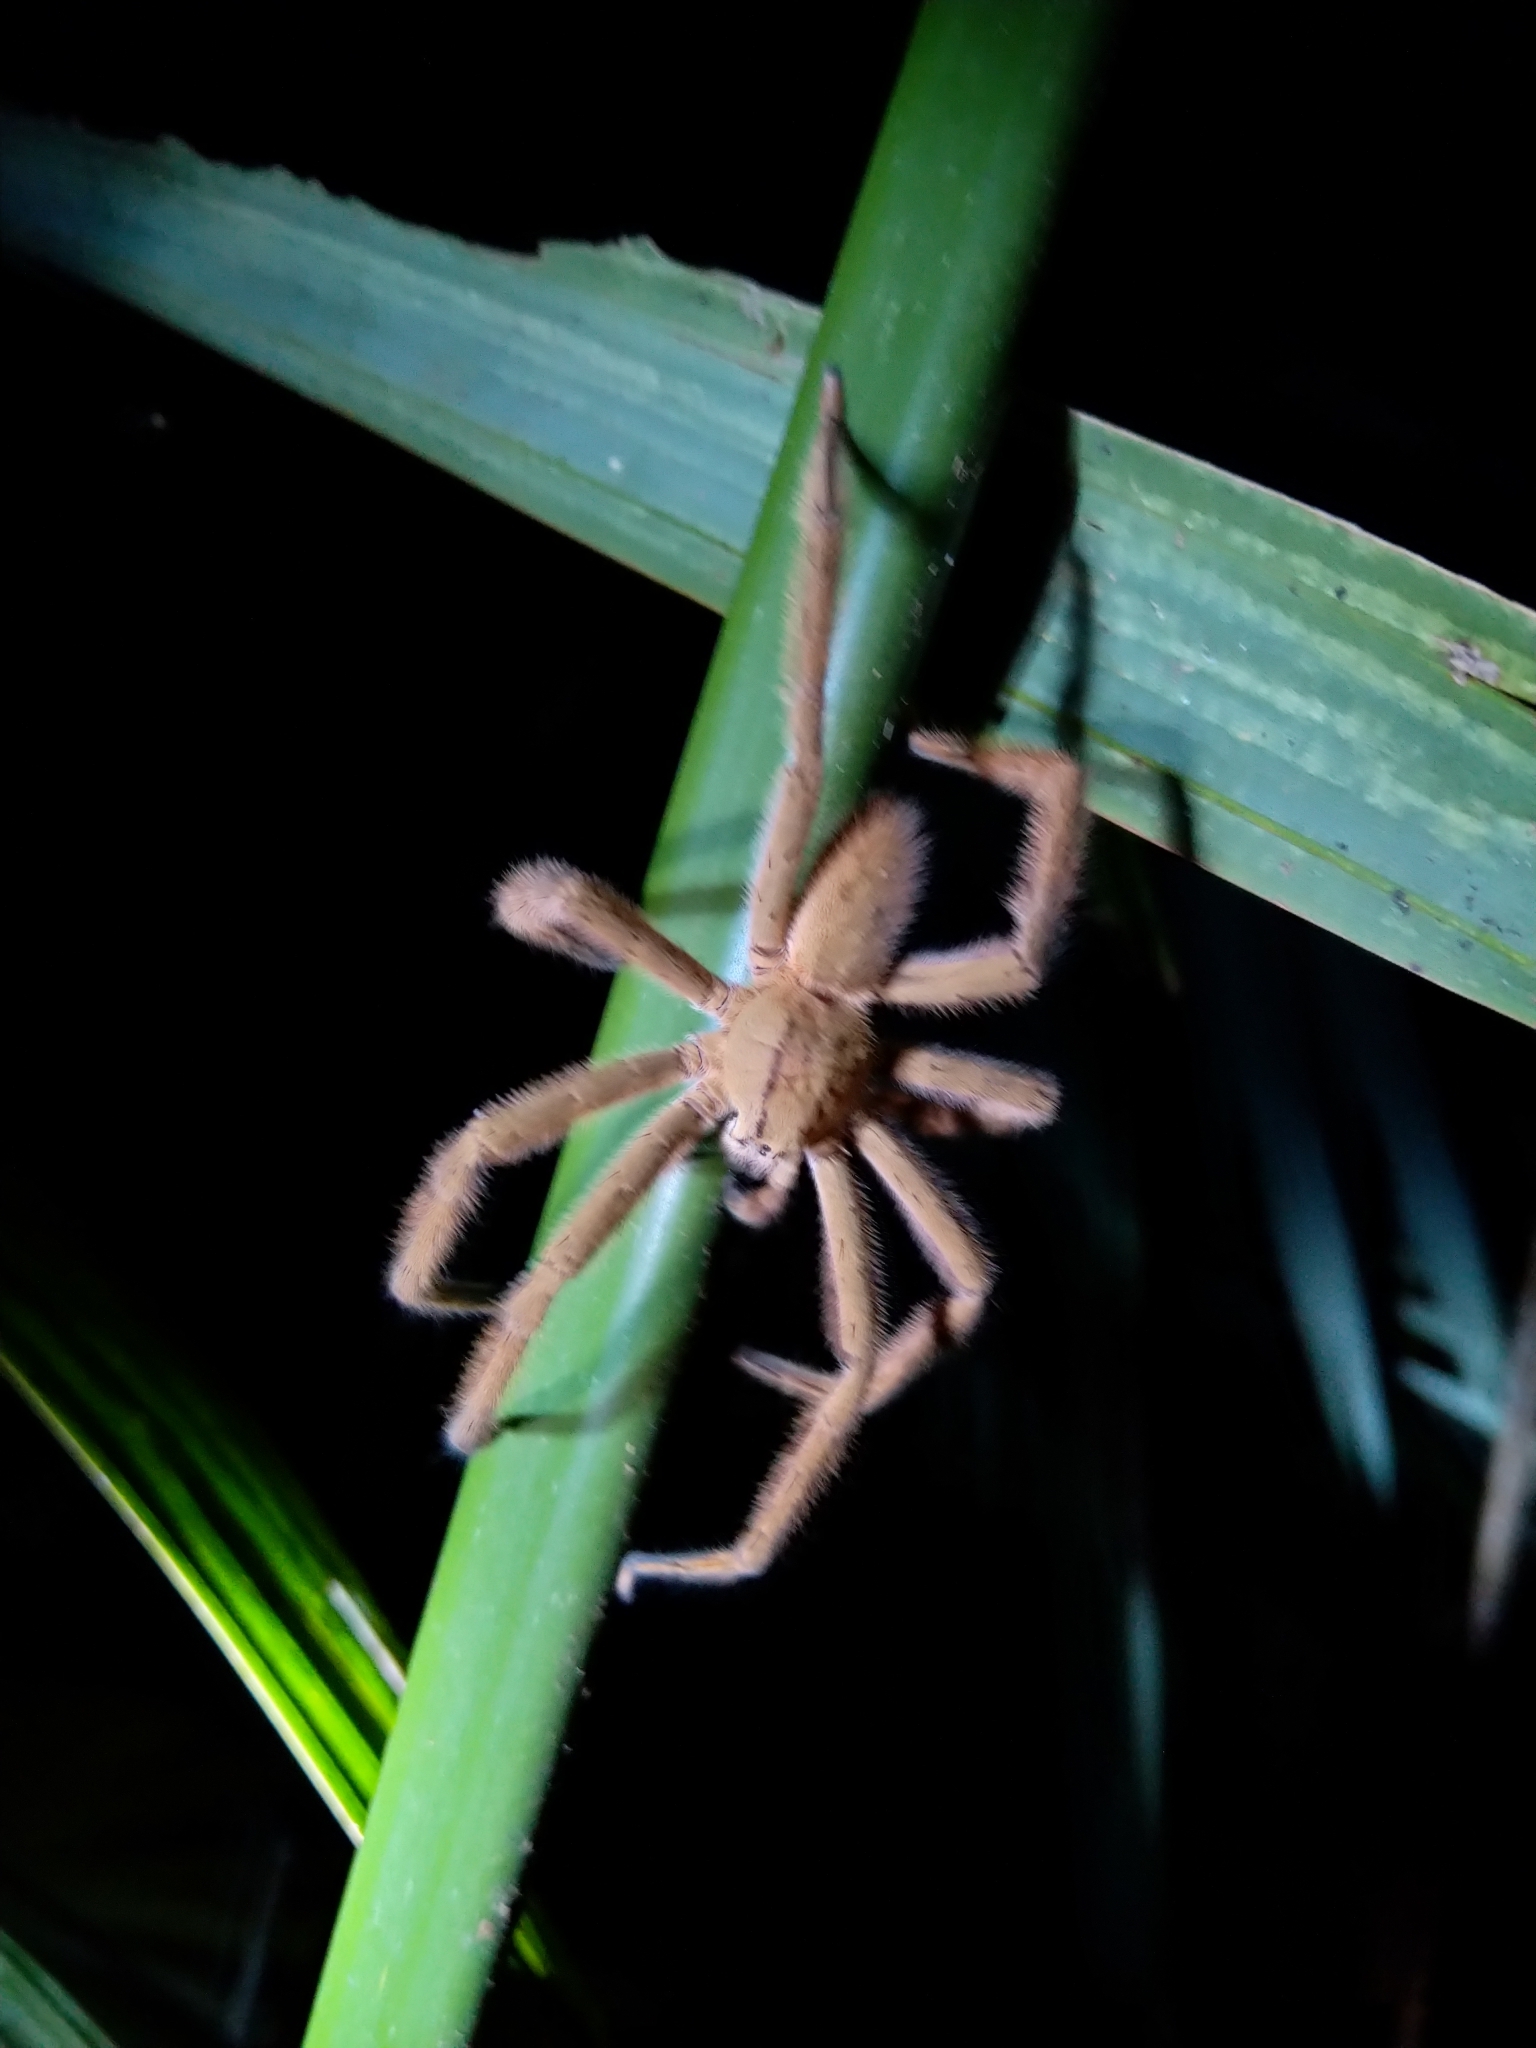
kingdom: Animalia
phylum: Arthropoda
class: Arachnida
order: Araneae
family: Trechaleidae
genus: Cupiennius
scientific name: Cupiennius salei
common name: Wandering spiders
